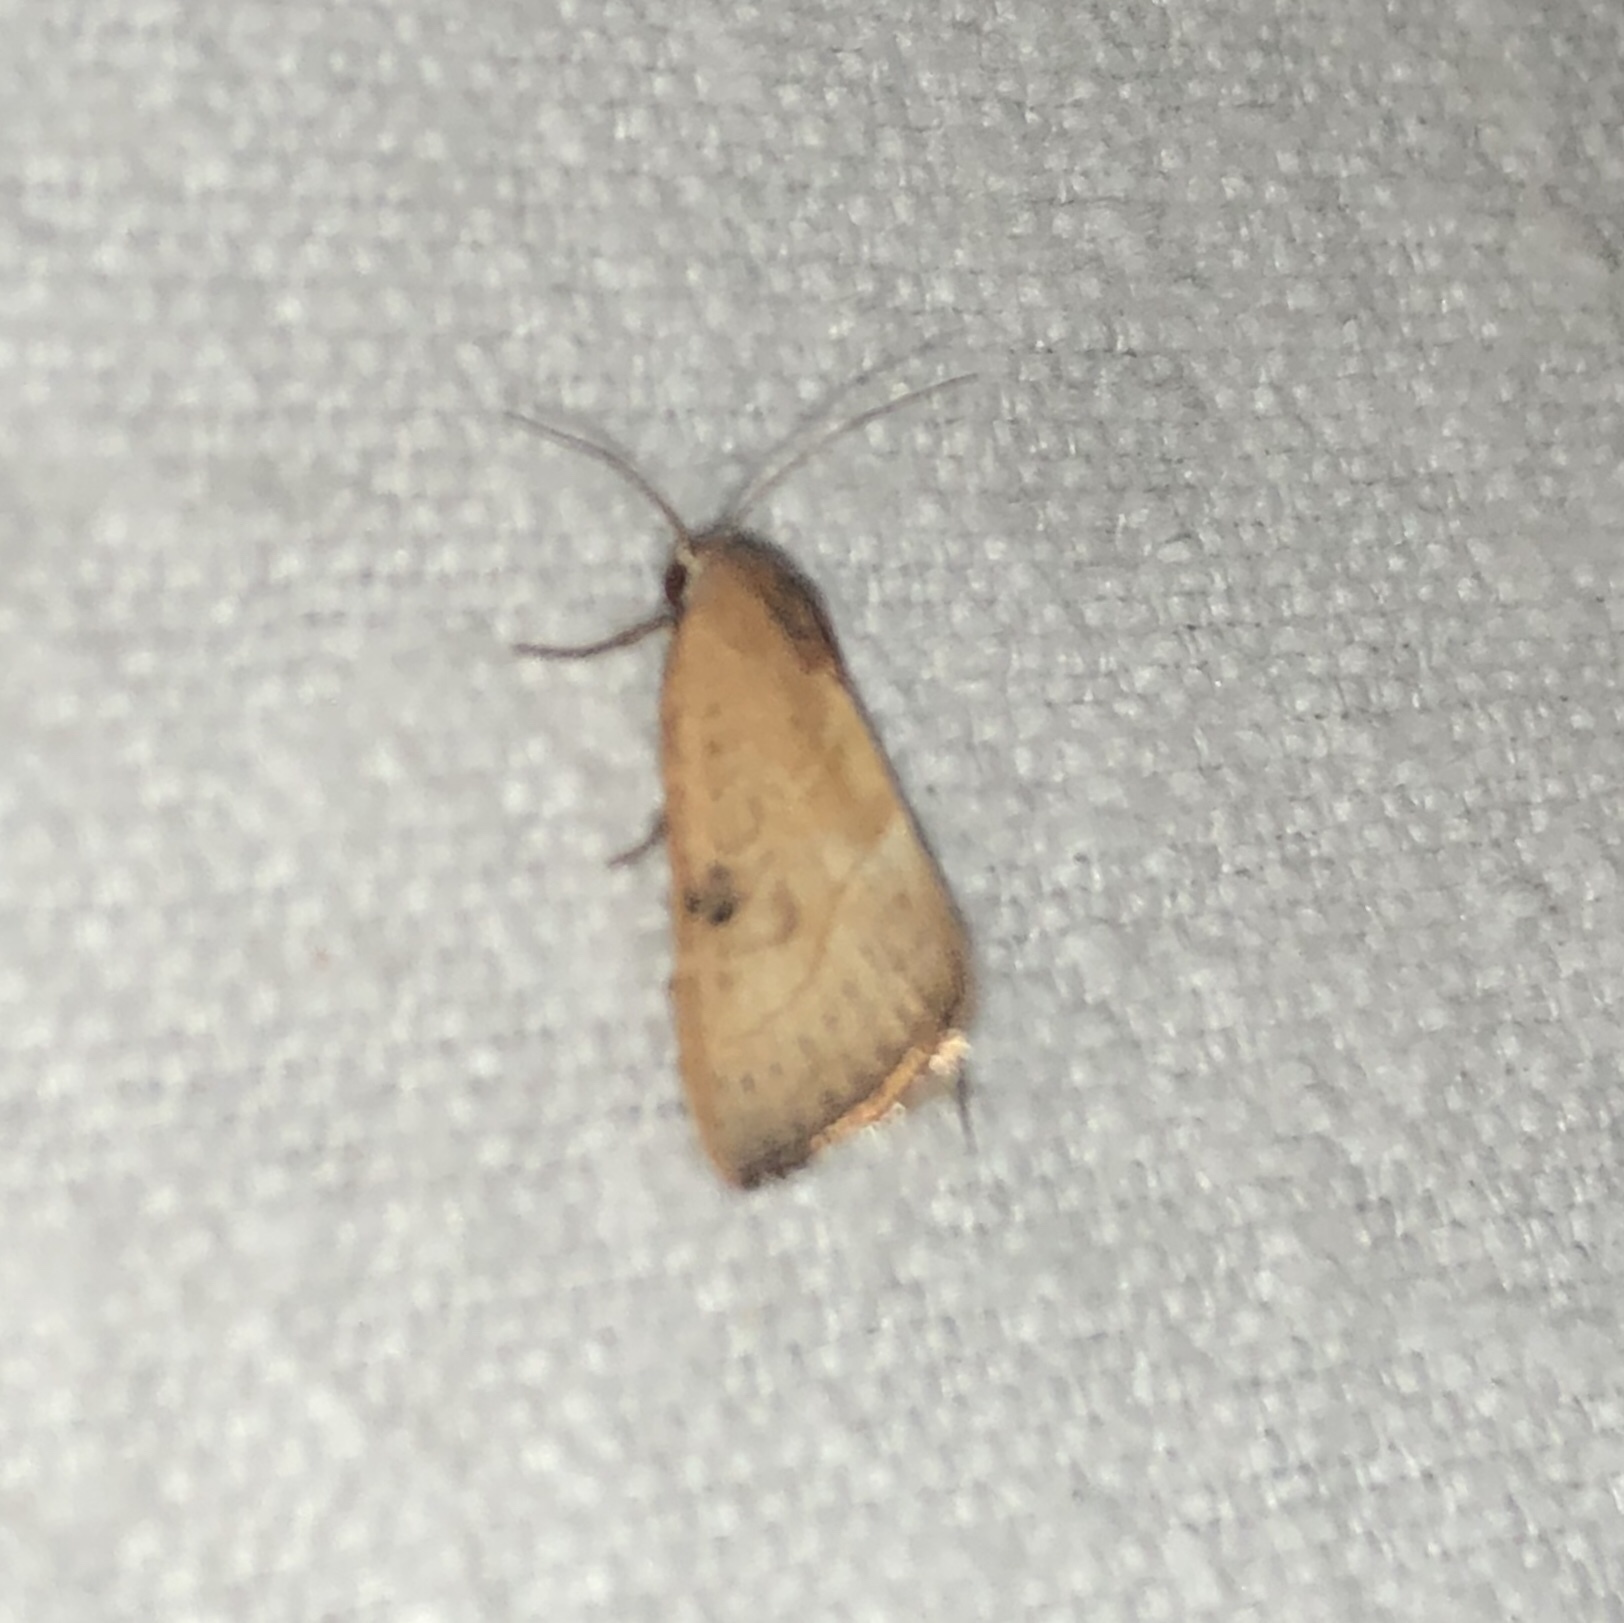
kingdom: Animalia
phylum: Arthropoda
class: Insecta
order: Lepidoptera
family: Noctuidae
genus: Galgula
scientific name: Galgula partita
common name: Wedgeling
